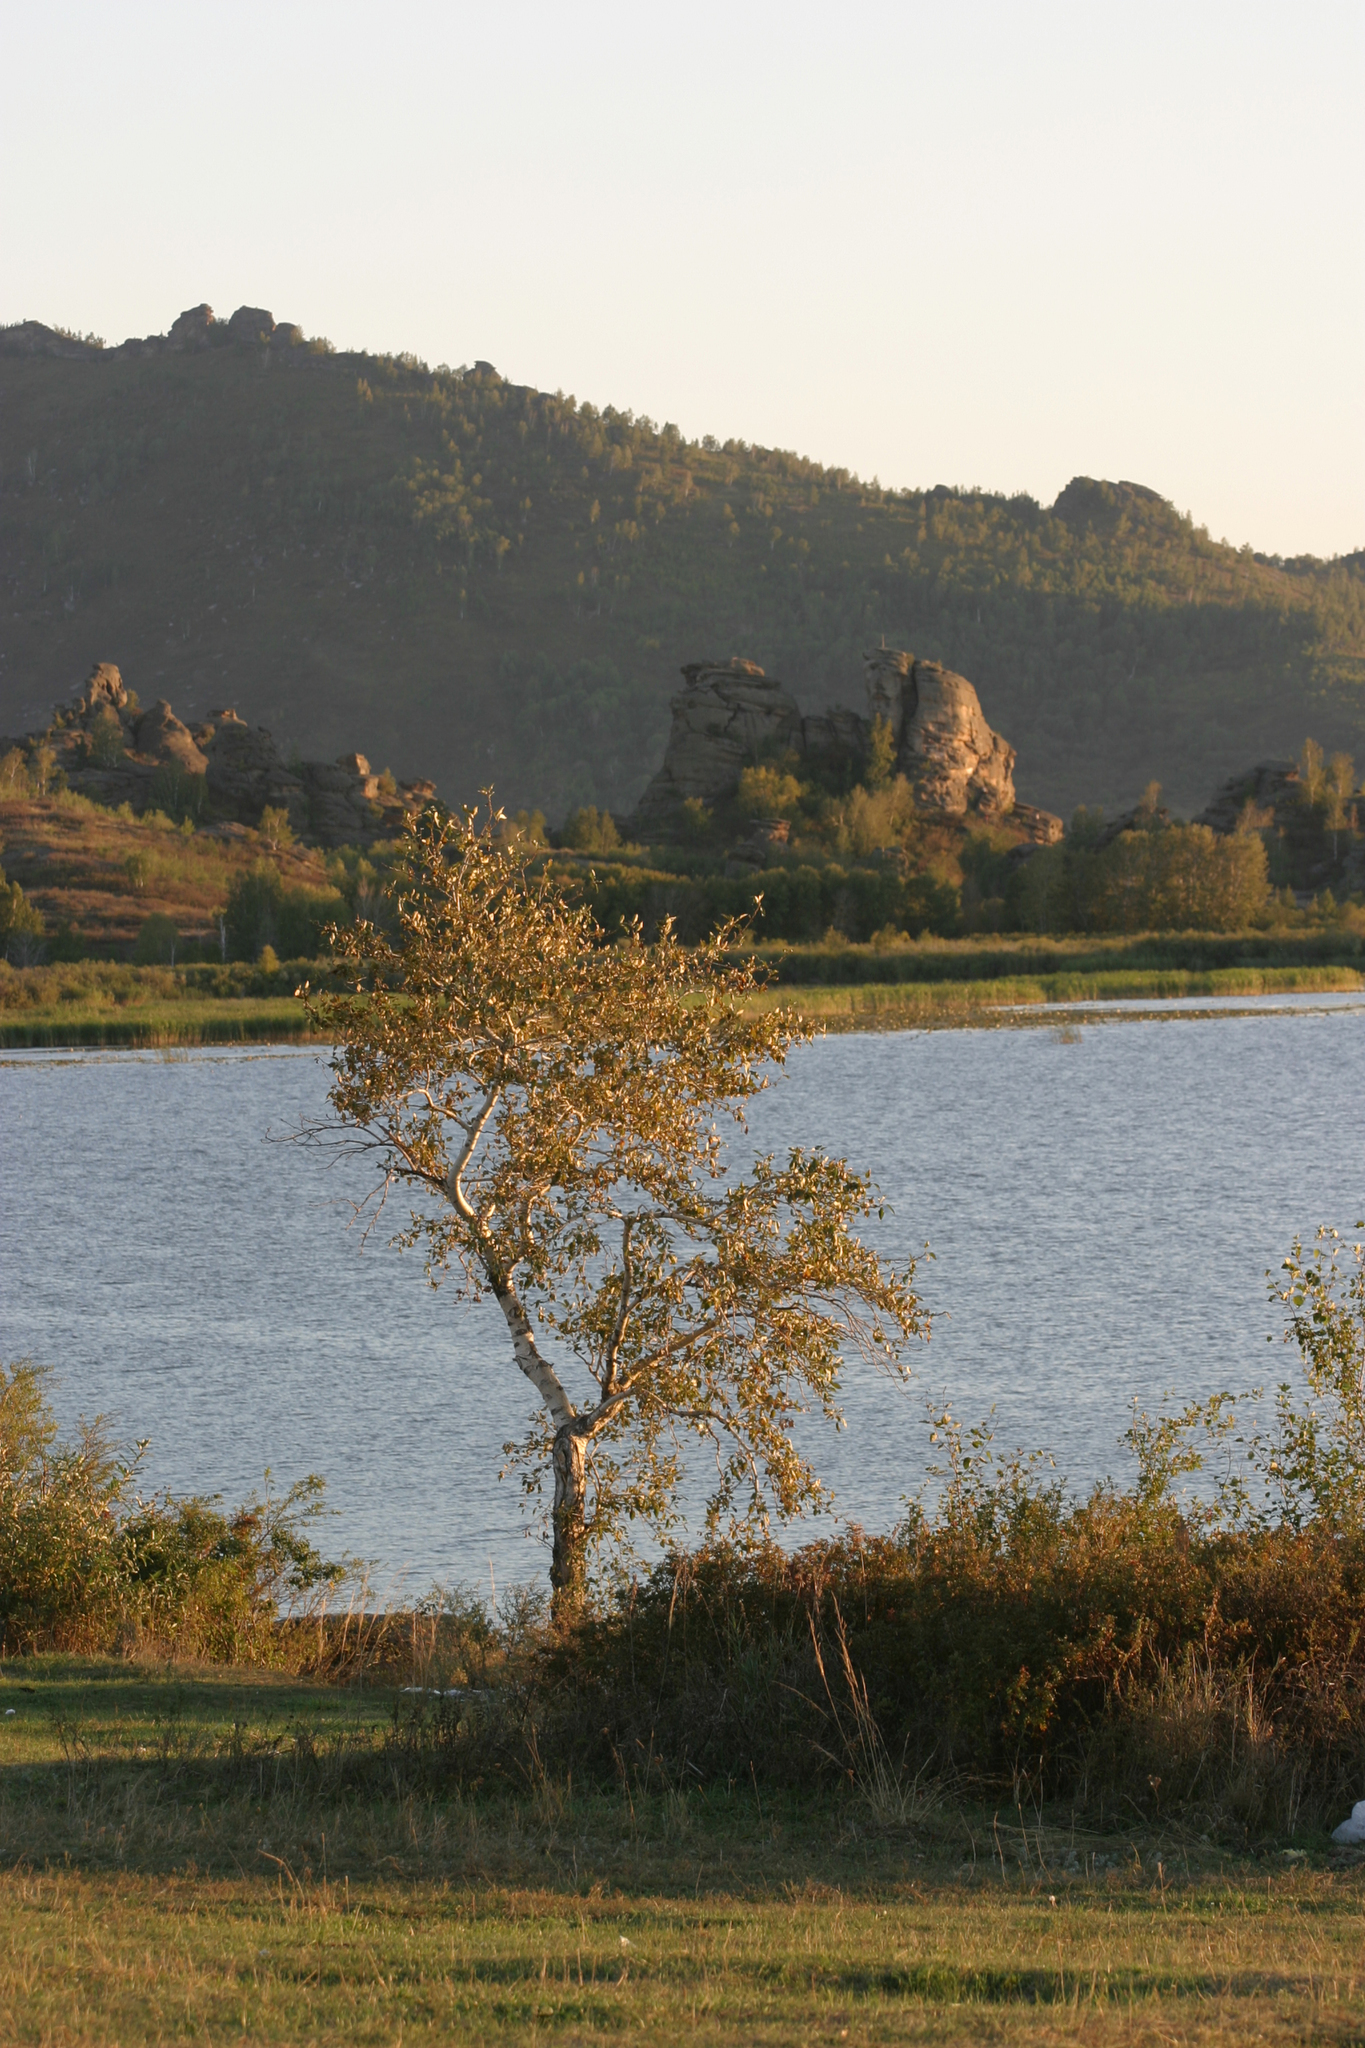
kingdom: Plantae
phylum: Tracheophyta
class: Magnoliopsida
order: Fagales
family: Betulaceae
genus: Betula
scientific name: Betula pendula
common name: Silver birch
